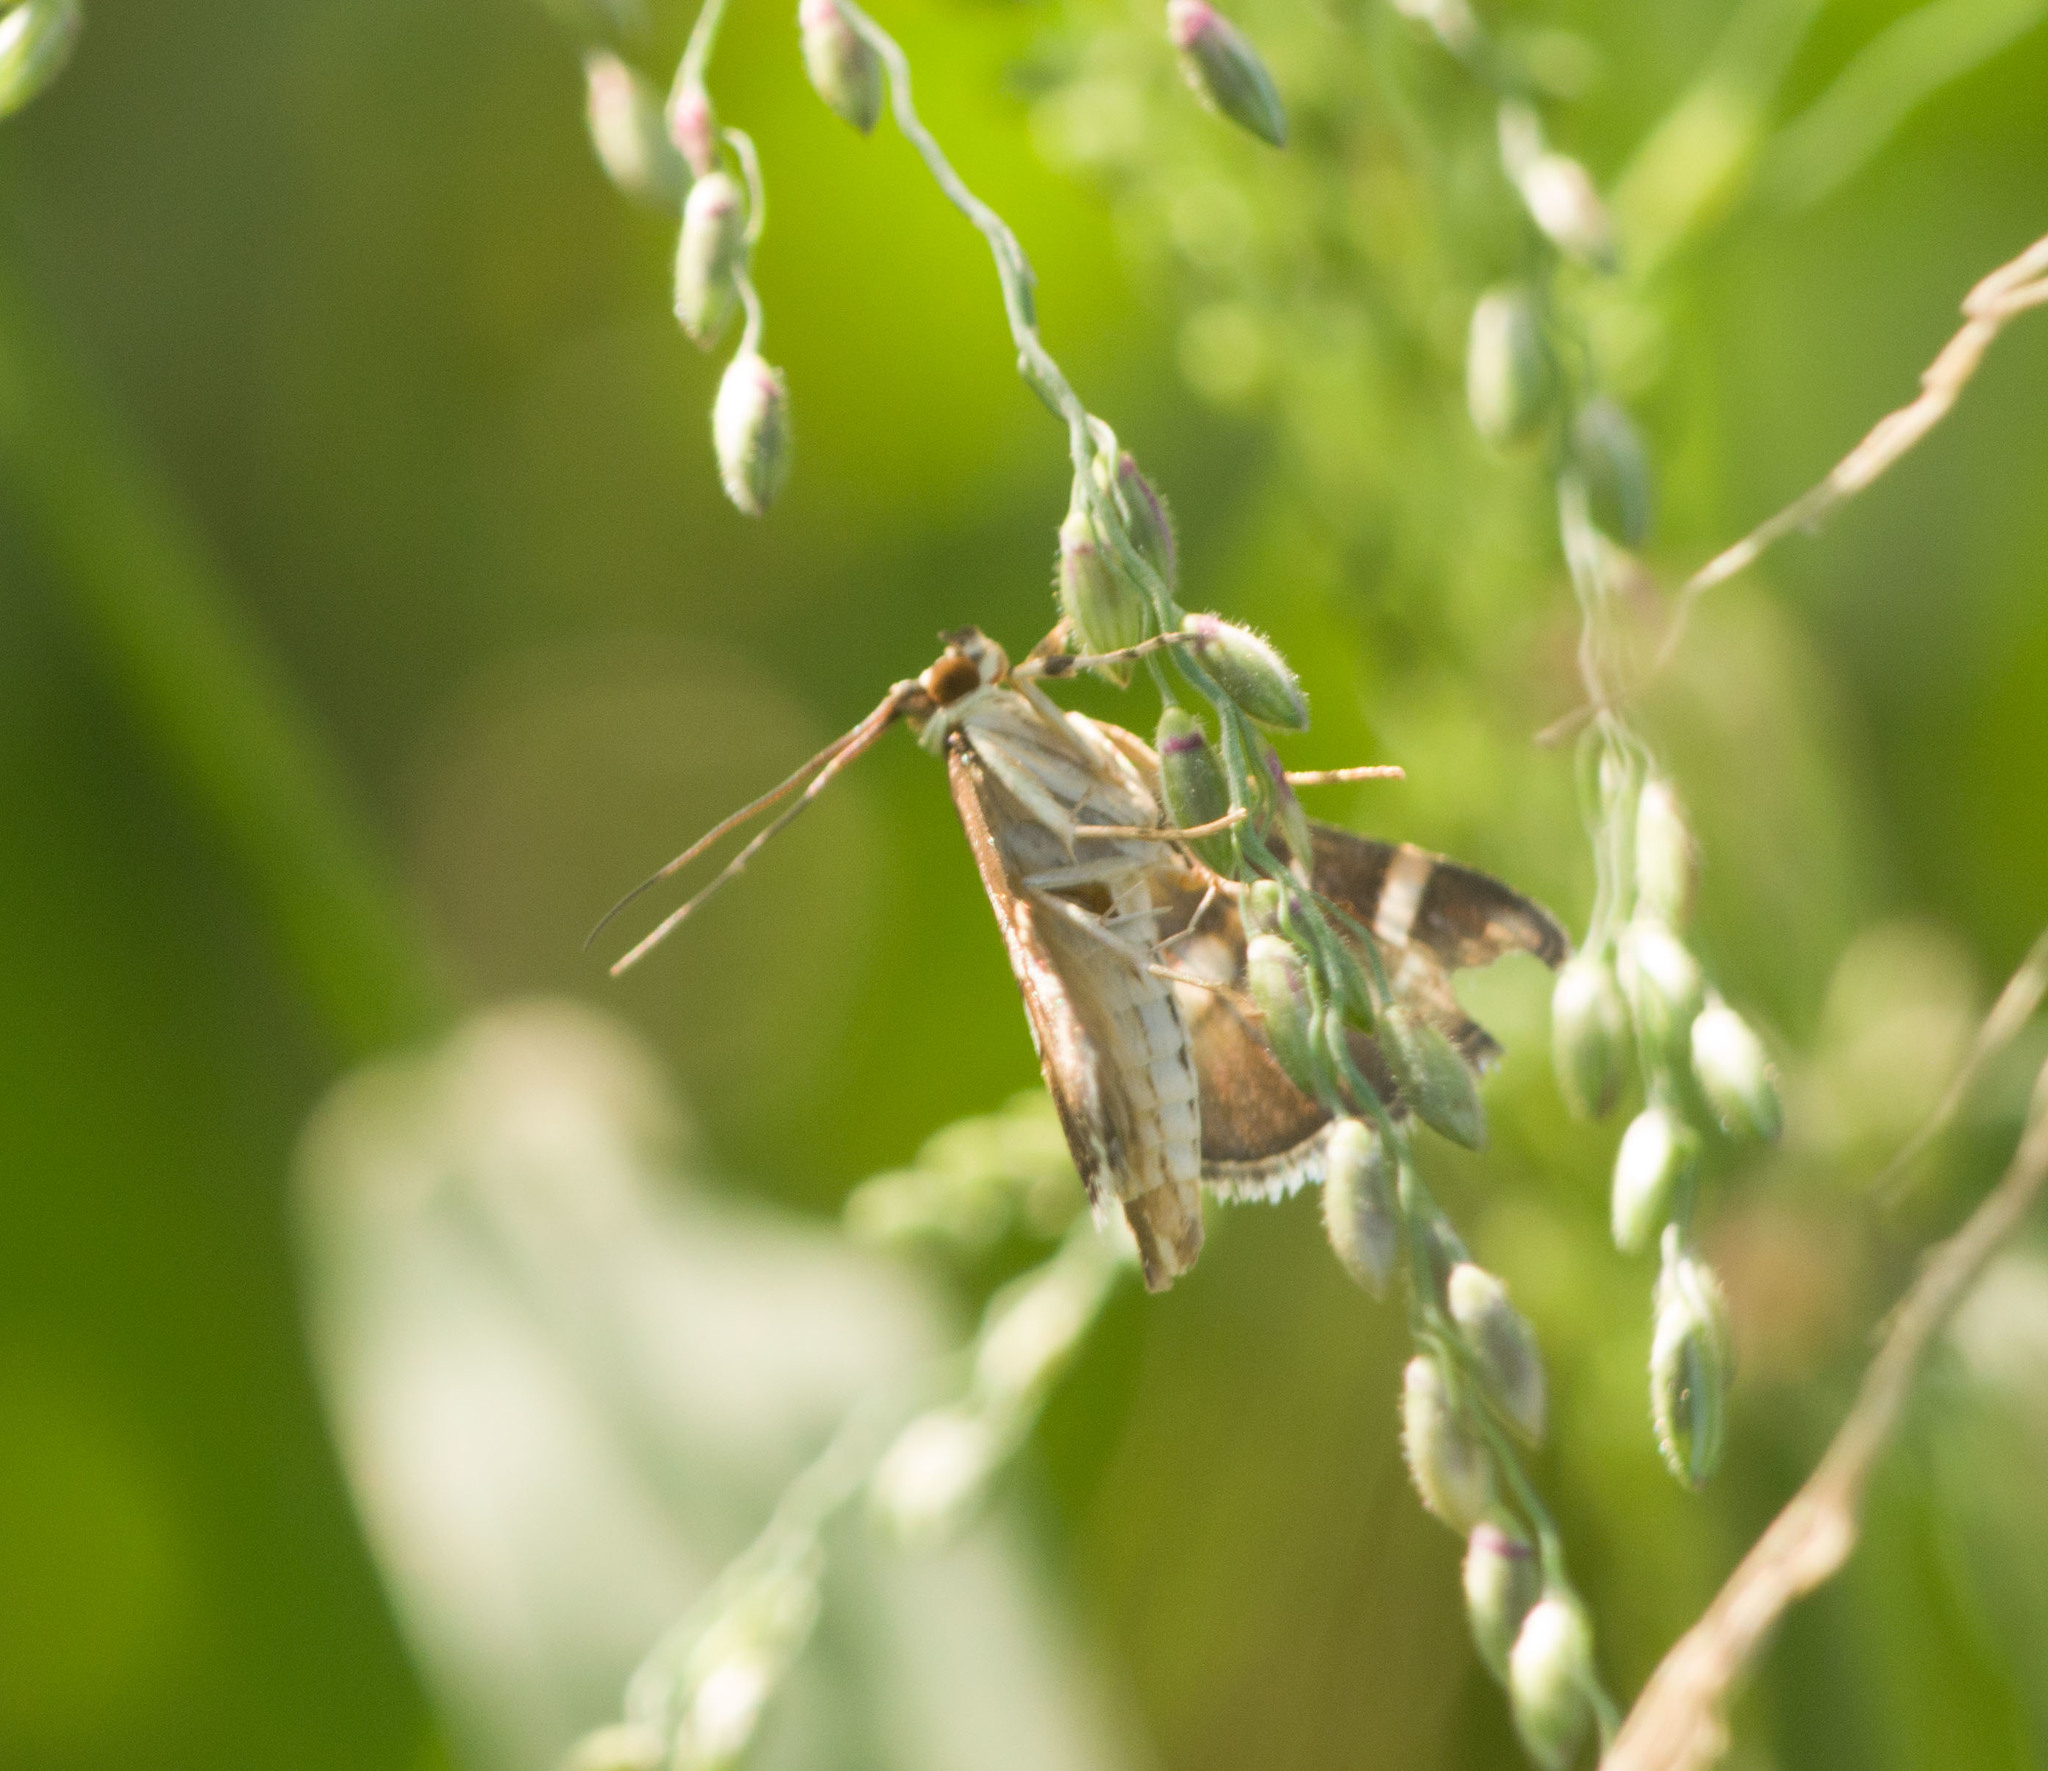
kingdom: Animalia
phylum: Arthropoda
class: Insecta
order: Lepidoptera
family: Crambidae
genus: Spoladea
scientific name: Spoladea recurvalis
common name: Beet webworm moth
